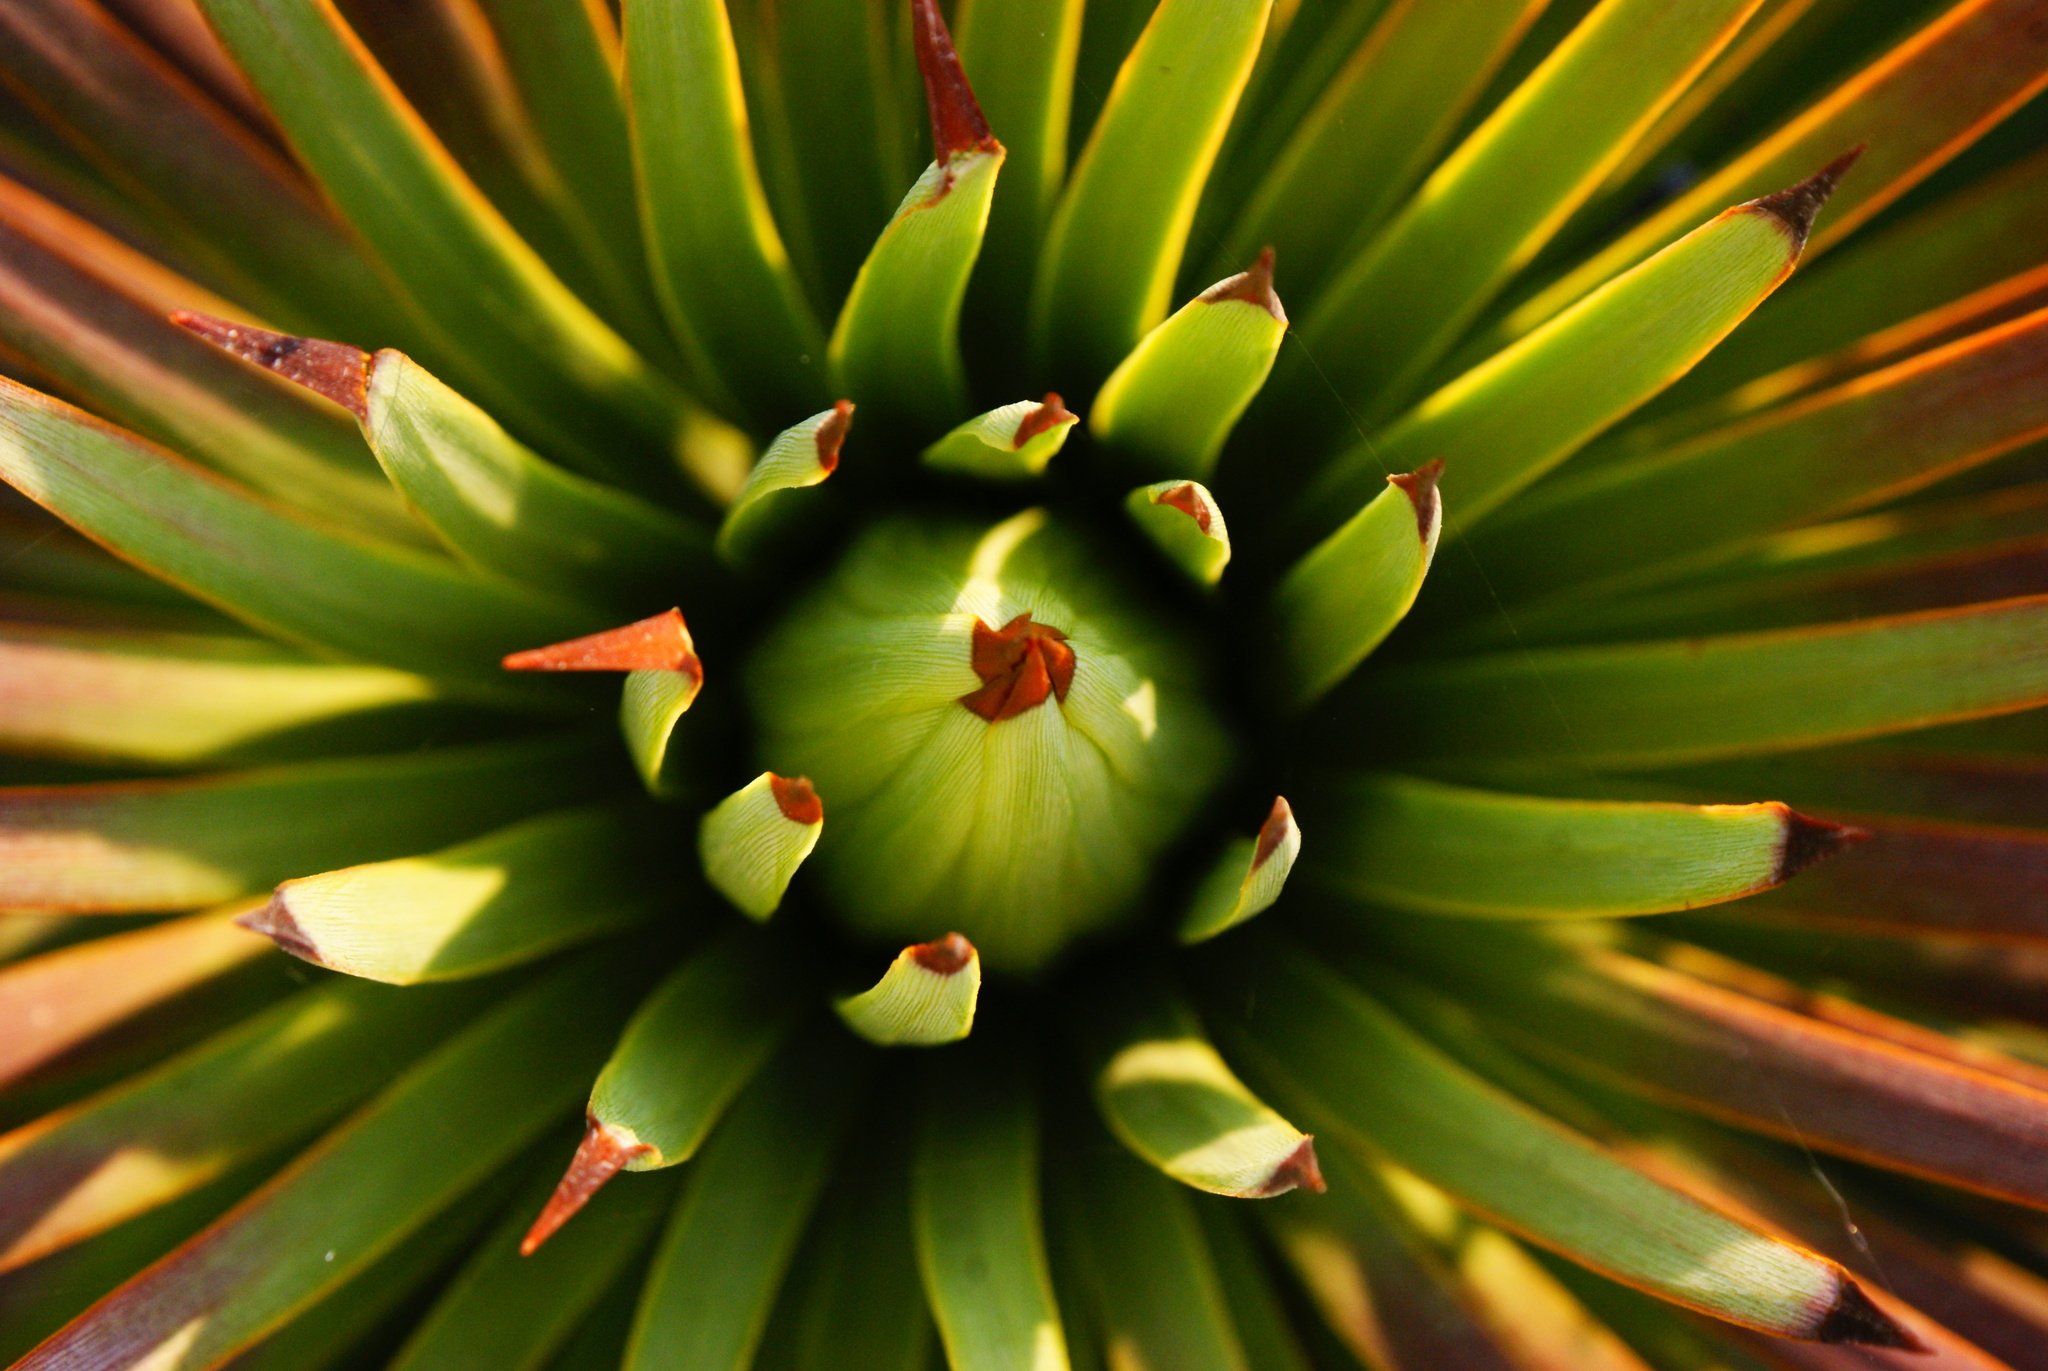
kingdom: Plantae
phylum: Tracheophyta
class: Liliopsida
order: Asparagales
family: Asparagaceae
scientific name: Asparagaceae
